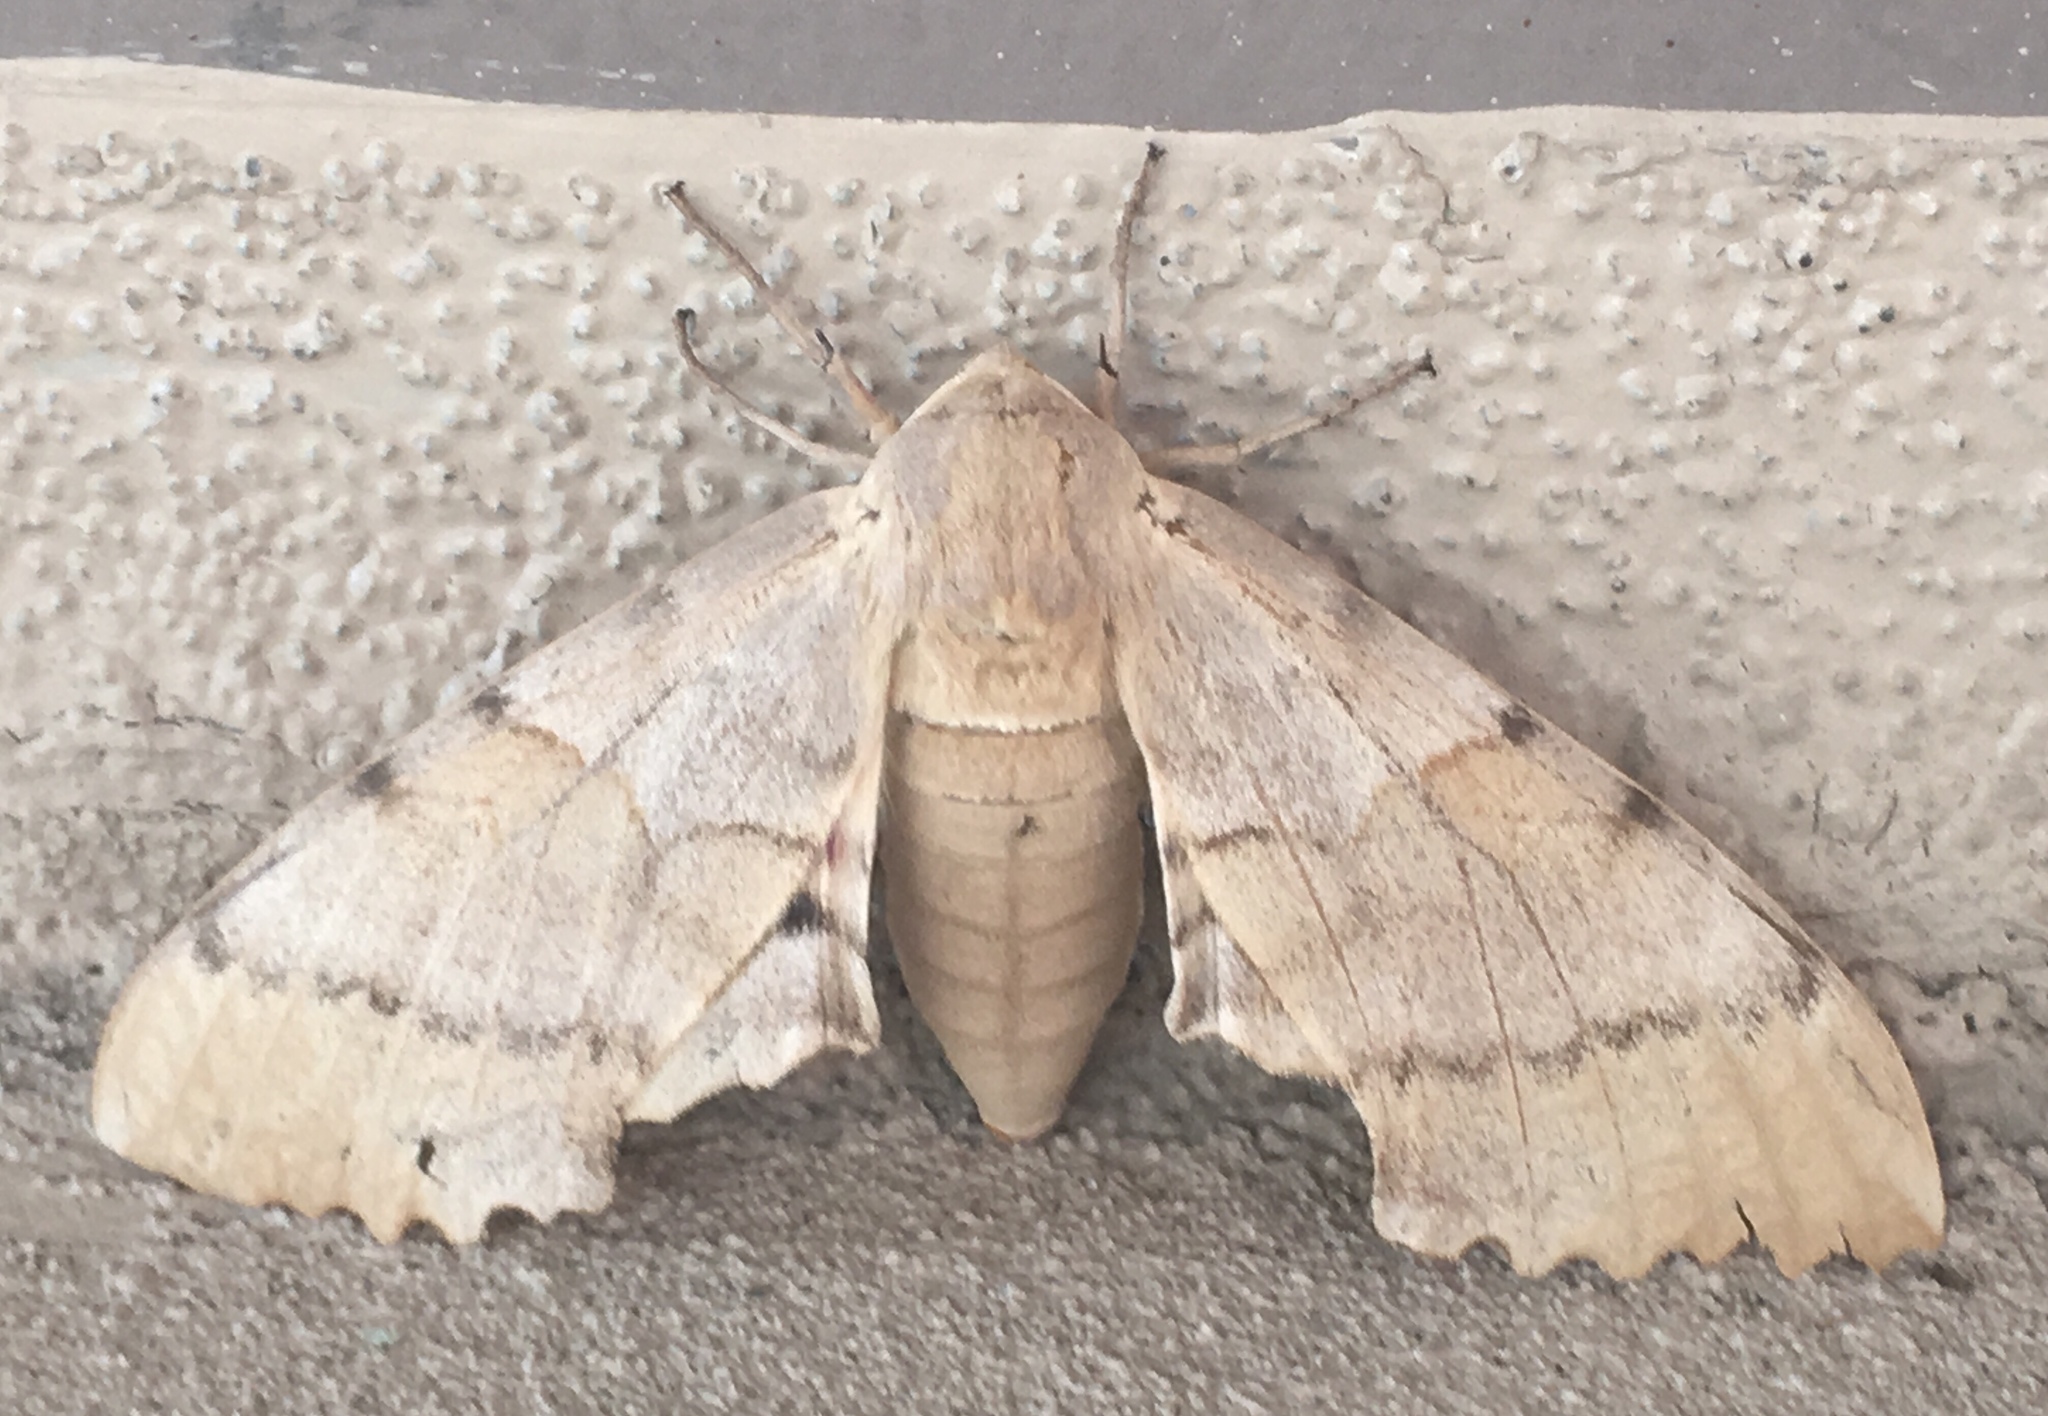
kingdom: Animalia
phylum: Arthropoda
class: Insecta
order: Lepidoptera
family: Sphingidae
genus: Pachysphinx
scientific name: Pachysphinx occidentalis
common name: Western poplar sphinx
